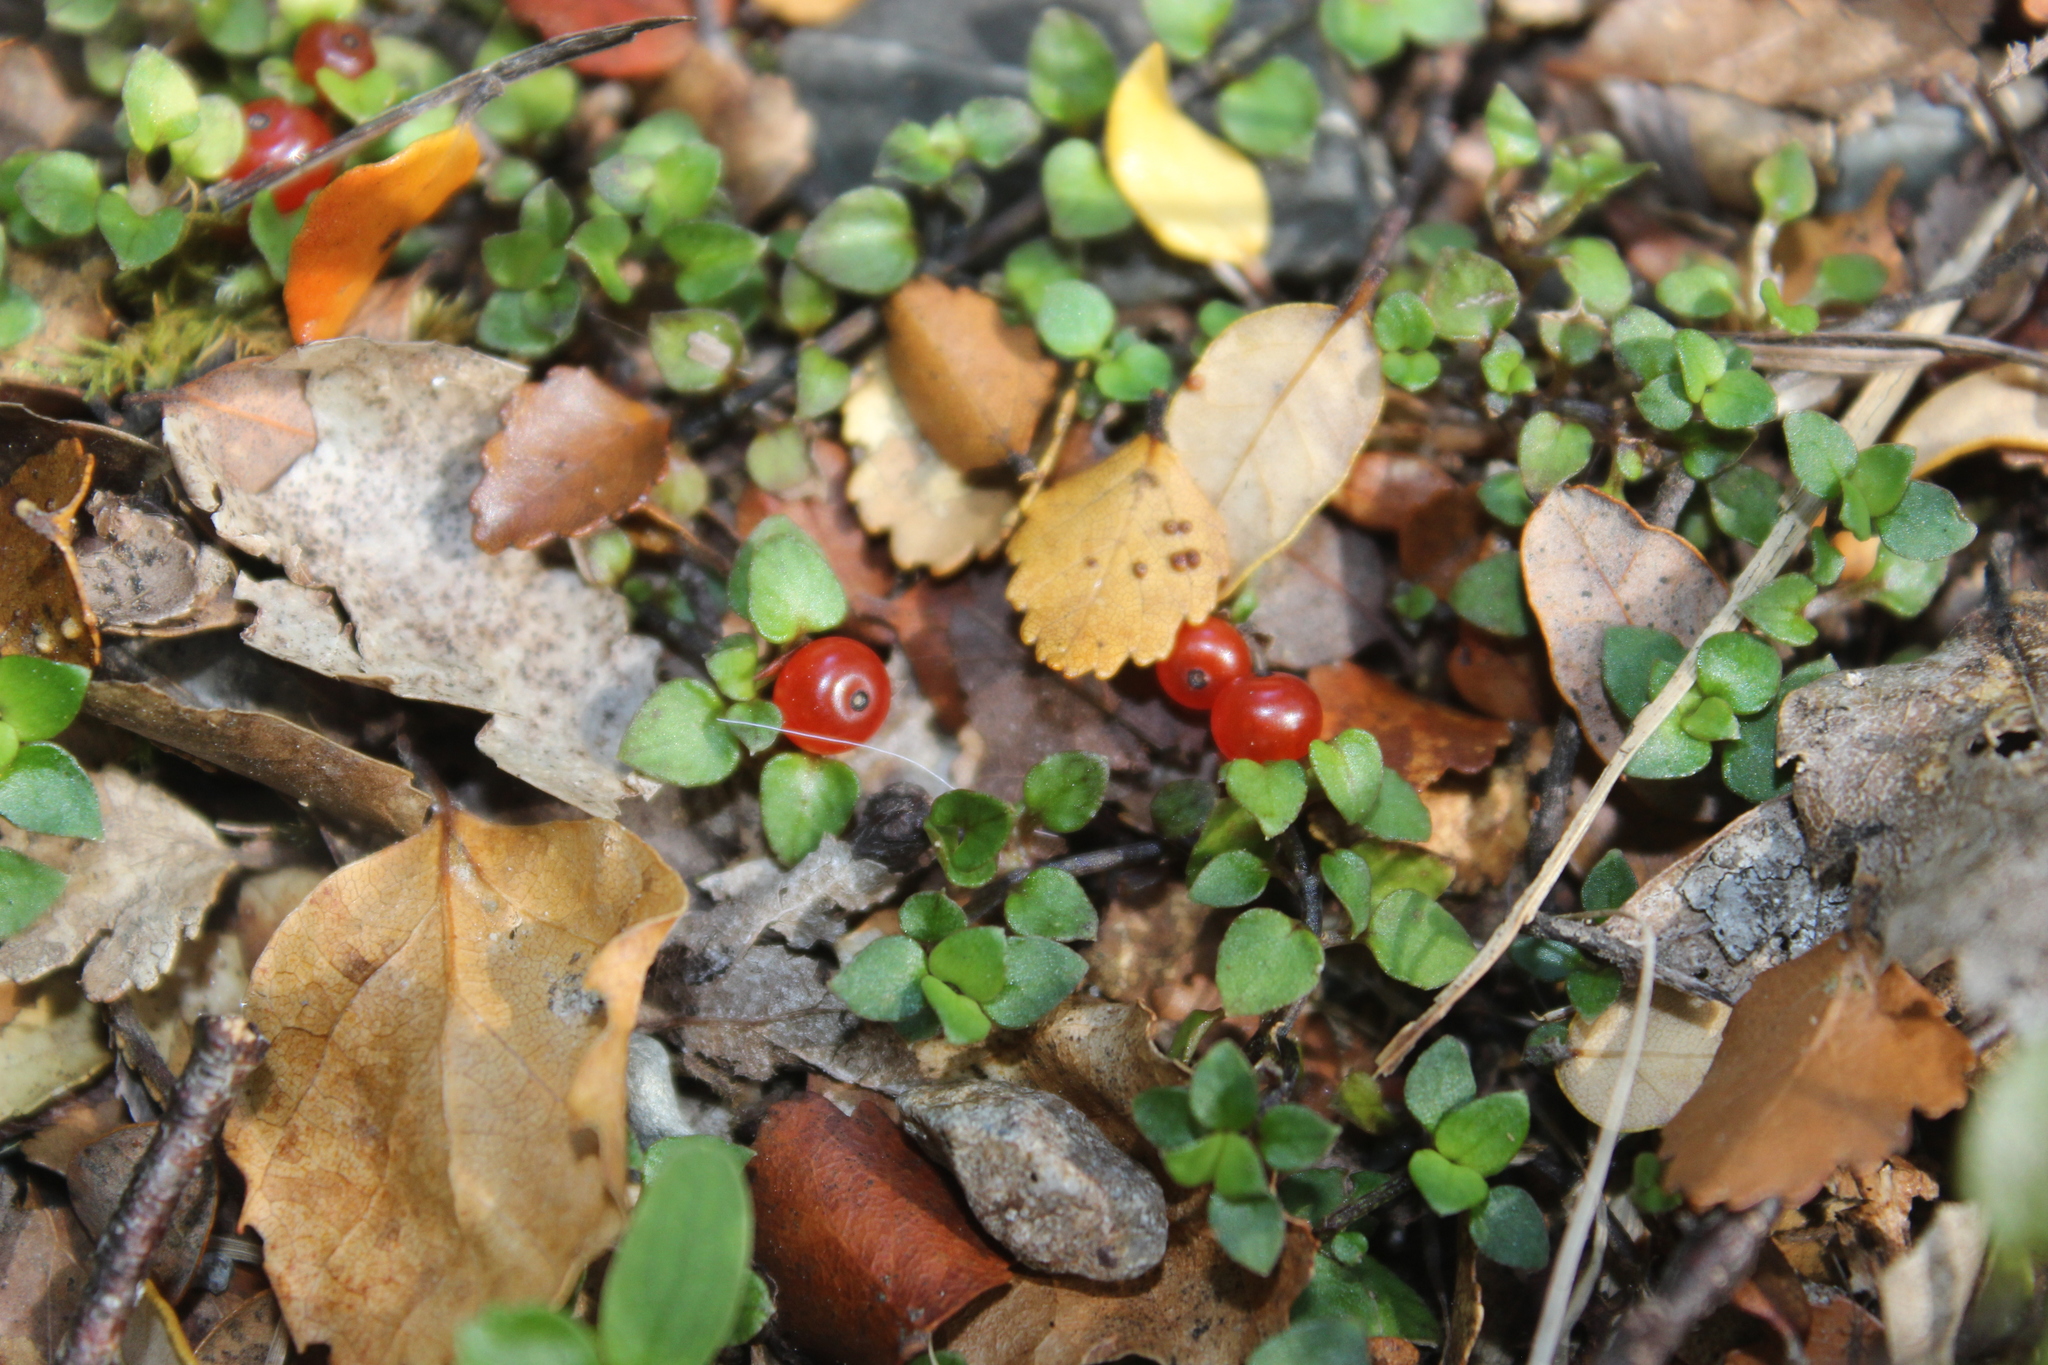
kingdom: Plantae
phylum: Tracheophyta
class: Magnoliopsida
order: Gentianales
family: Rubiaceae
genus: Nertera
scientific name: Nertera granadensis
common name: Beadplant
